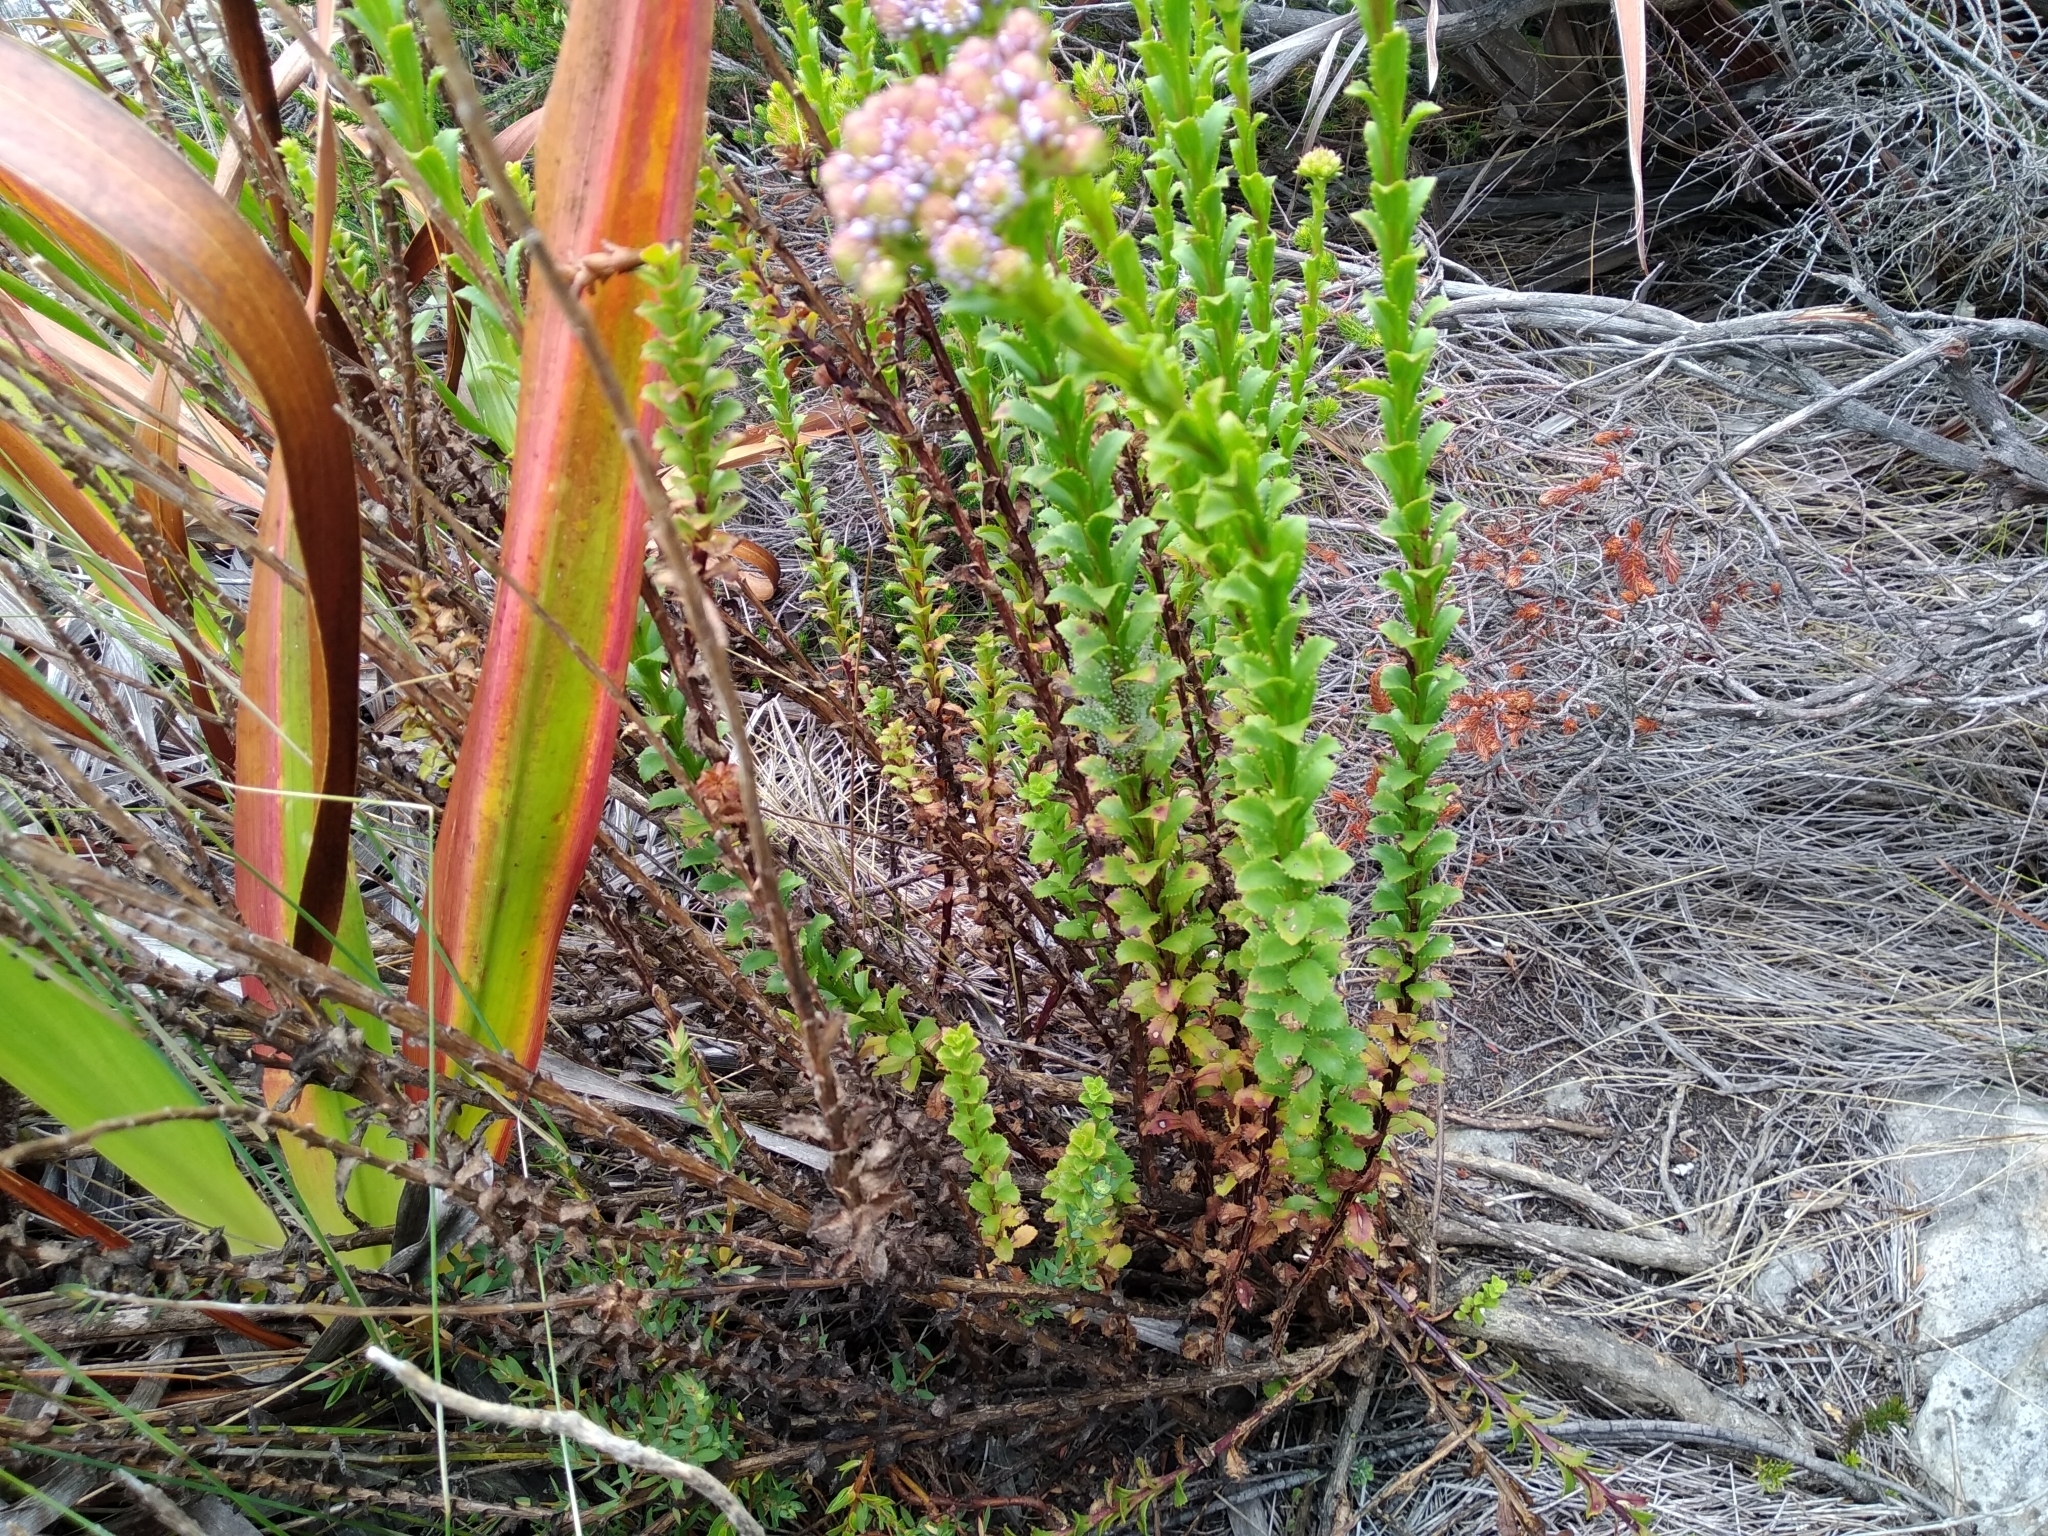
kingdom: Plantae
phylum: Tracheophyta
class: Magnoliopsida
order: Lamiales
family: Scrophulariaceae
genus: Pseudoselago
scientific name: Pseudoselago serrata
